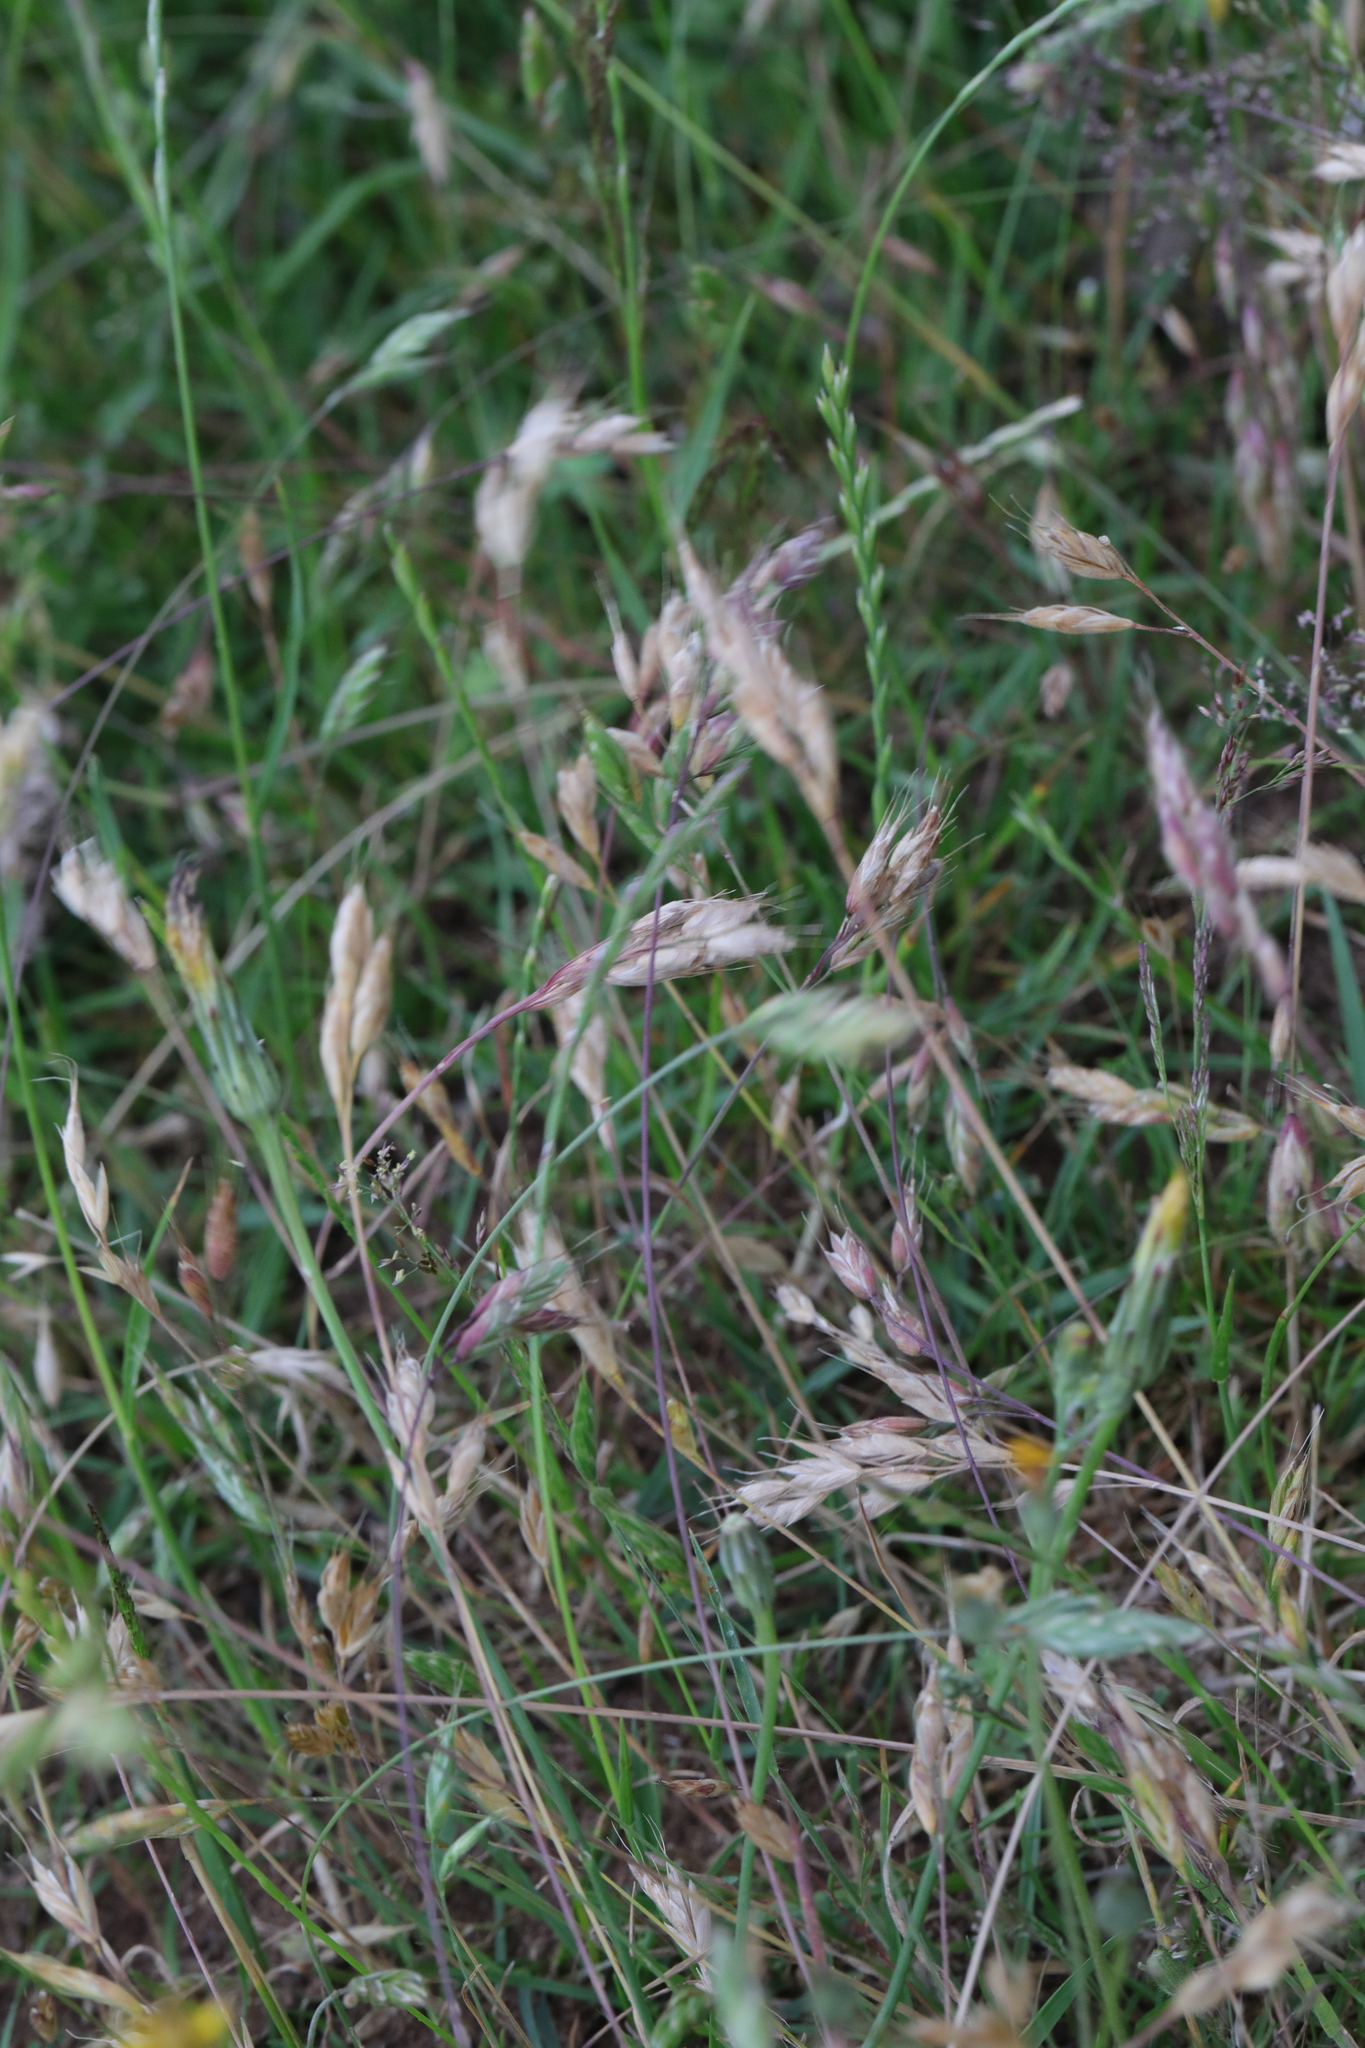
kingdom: Plantae
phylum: Tracheophyta
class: Liliopsida
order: Poales
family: Poaceae
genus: Bromus
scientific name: Bromus hordeaceus
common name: Soft brome
